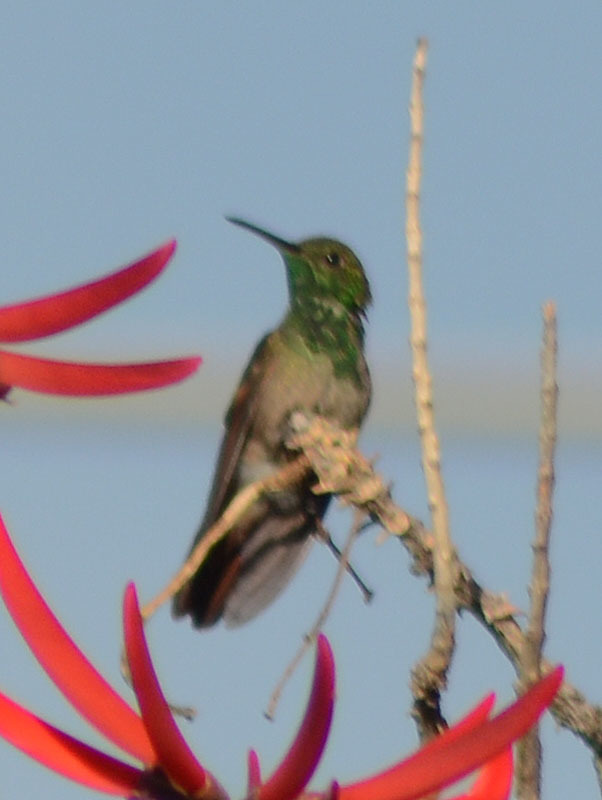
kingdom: Animalia
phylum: Chordata
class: Aves
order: Apodiformes
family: Trochilidae
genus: Saucerottia
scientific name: Saucerottia beryllina
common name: Berylline hummingbird
